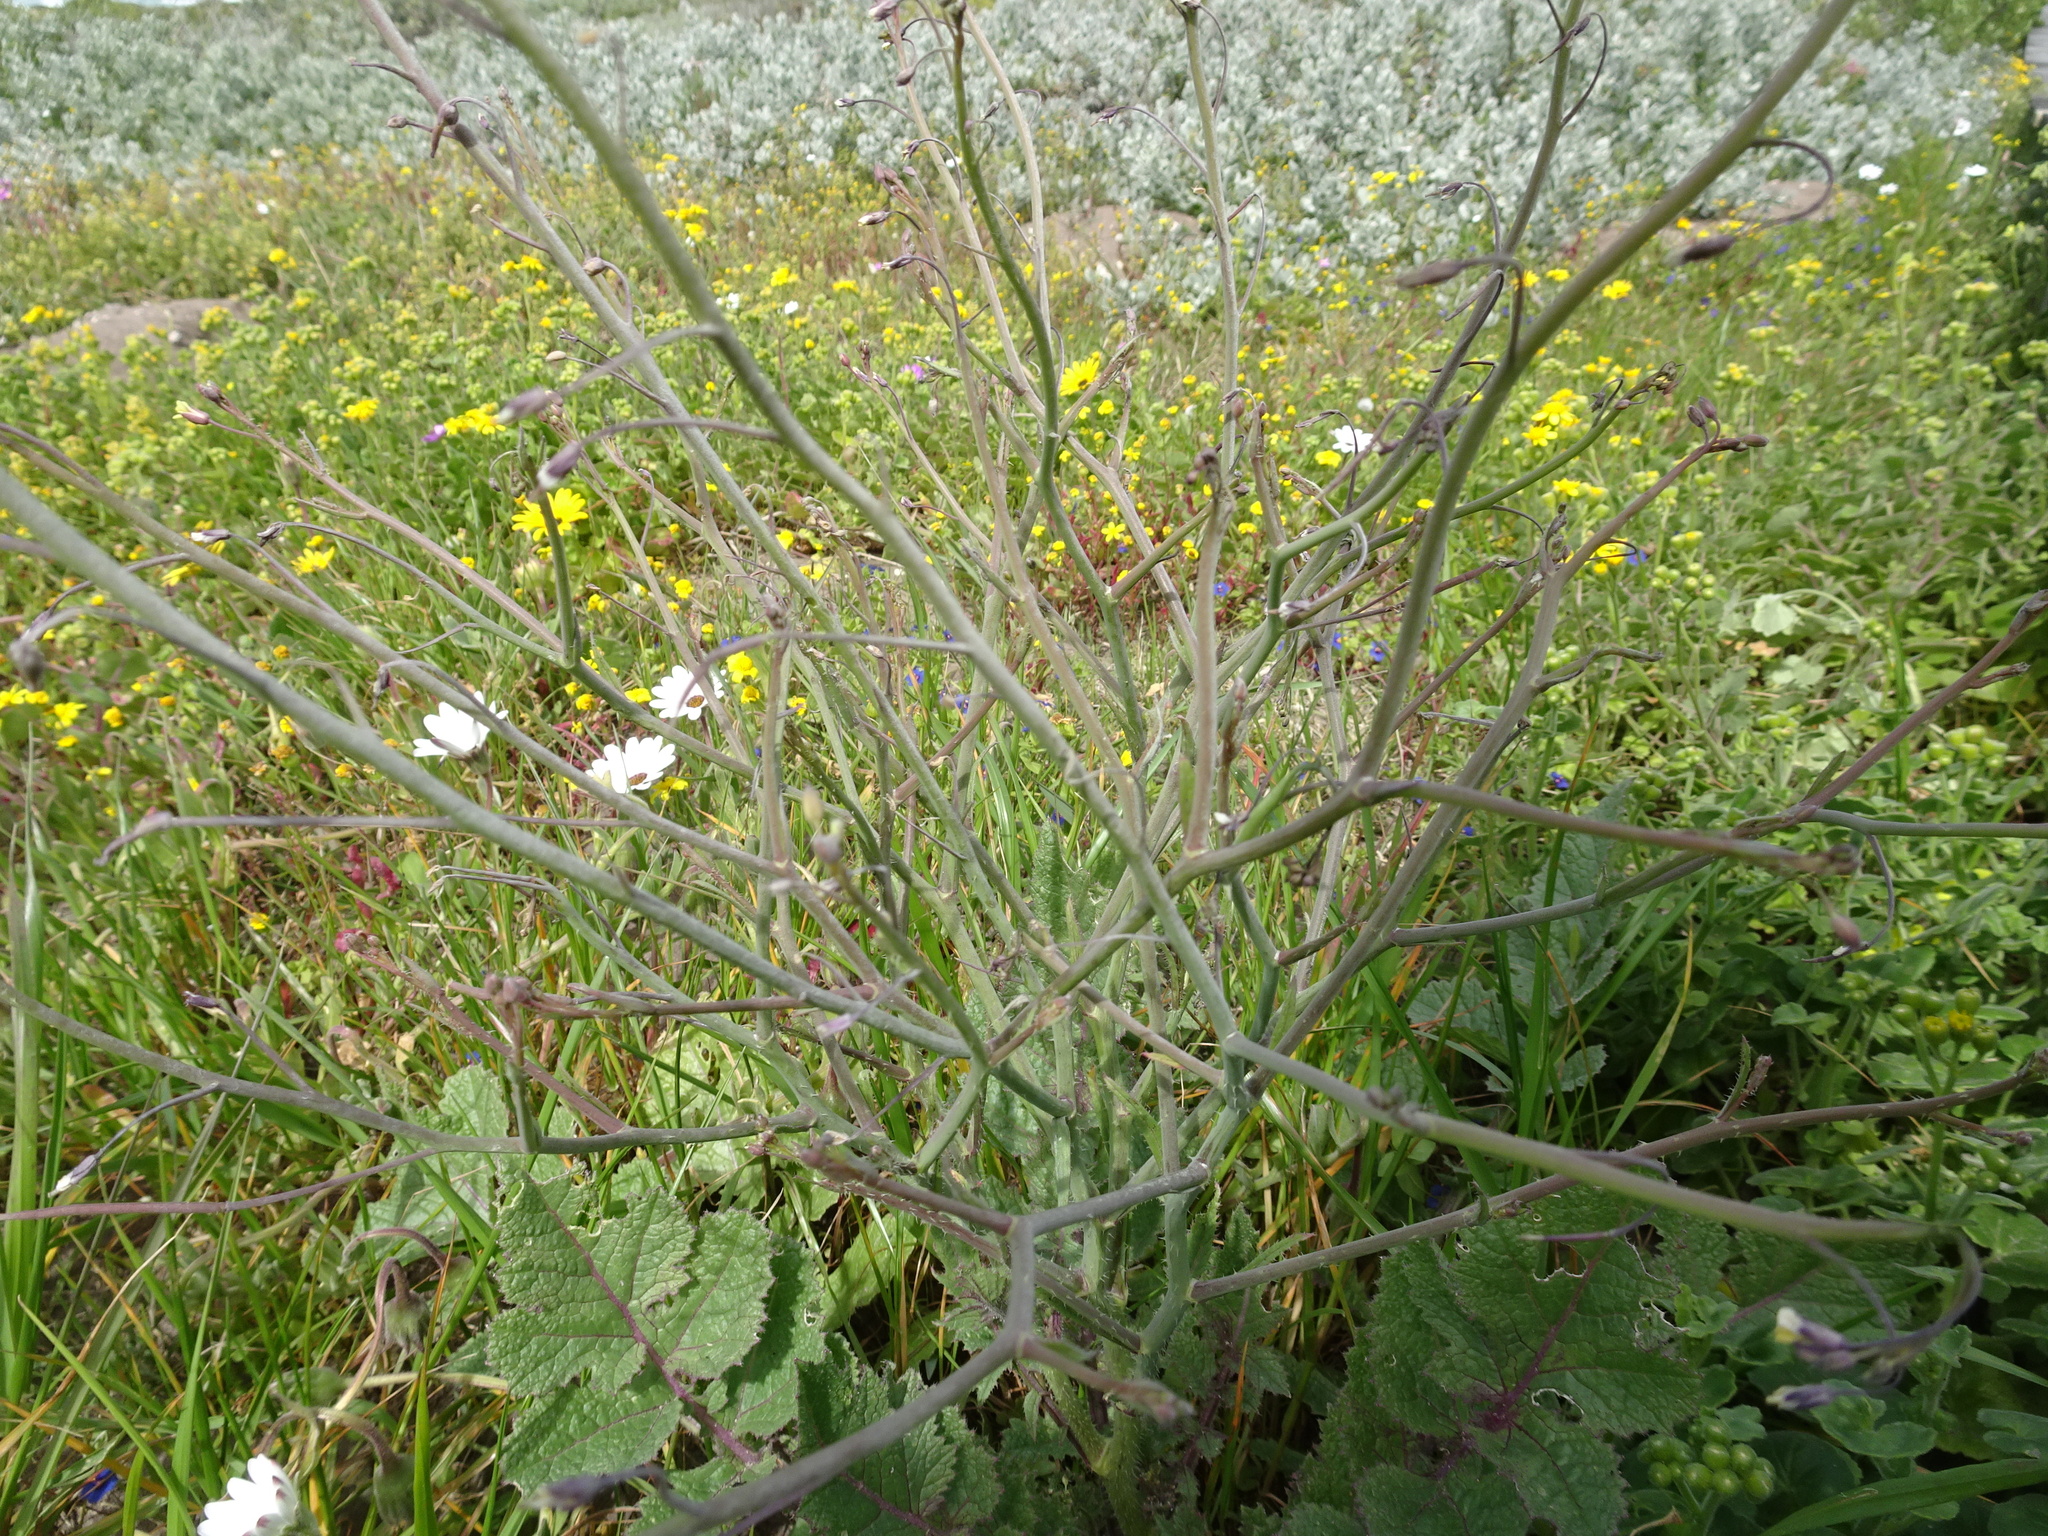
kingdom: Plantae
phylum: Tracheophyta
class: Magnoliopsida
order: Brassicales
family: Brassicaceae
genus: Brassica
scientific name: Brassica tournefortii
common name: Pale cabbage
